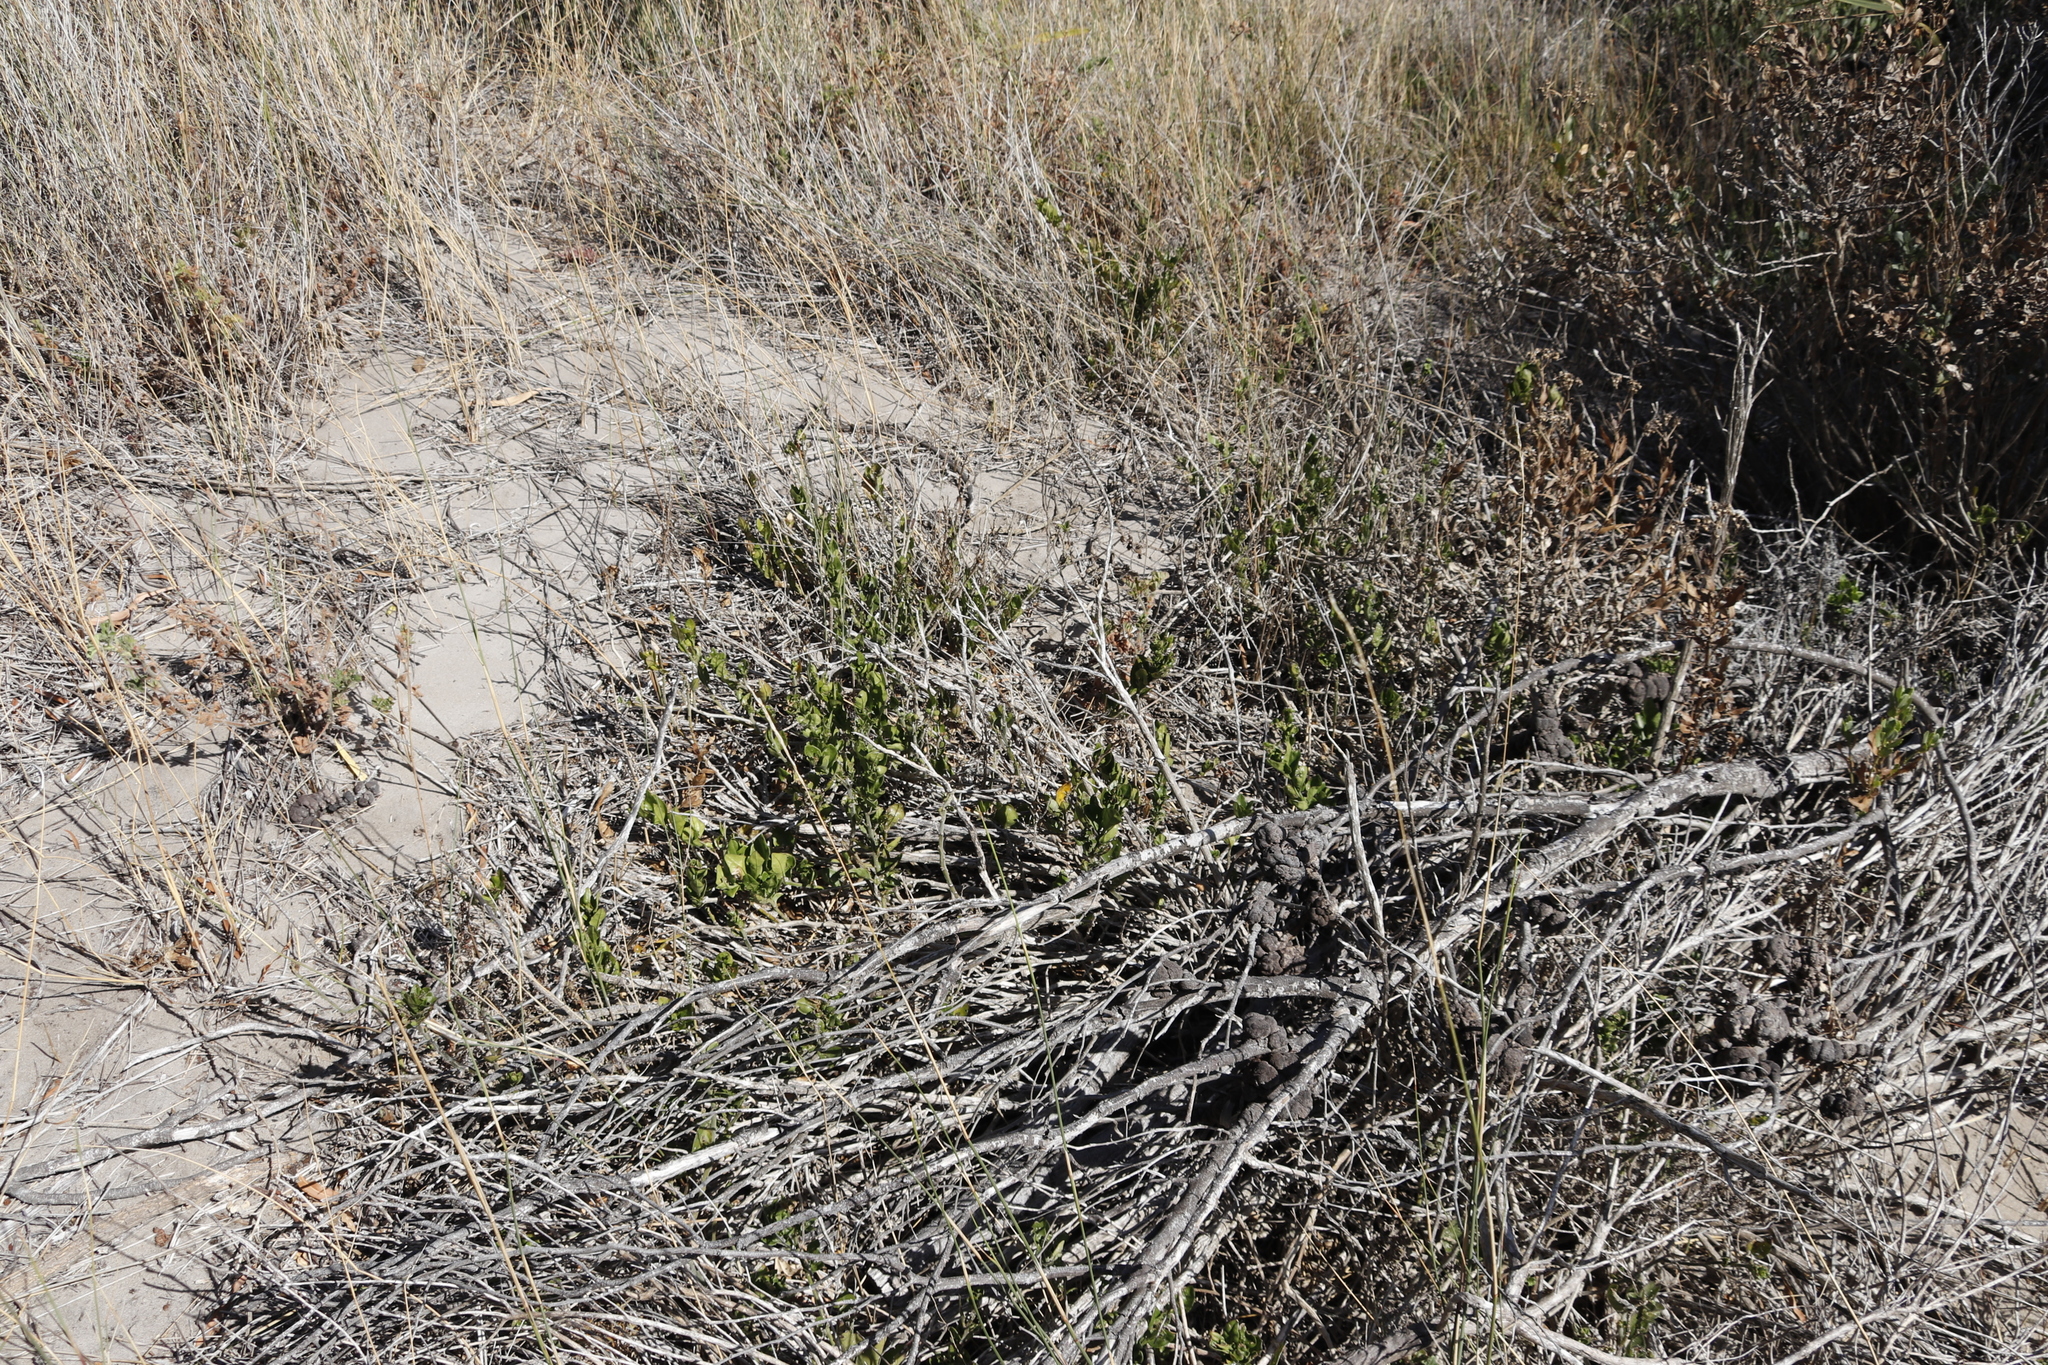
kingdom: Plantae
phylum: Tracheophyta
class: Magnoliopsida
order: Solanales
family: Solanaceae
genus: Solanum
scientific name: Solanum africanum
